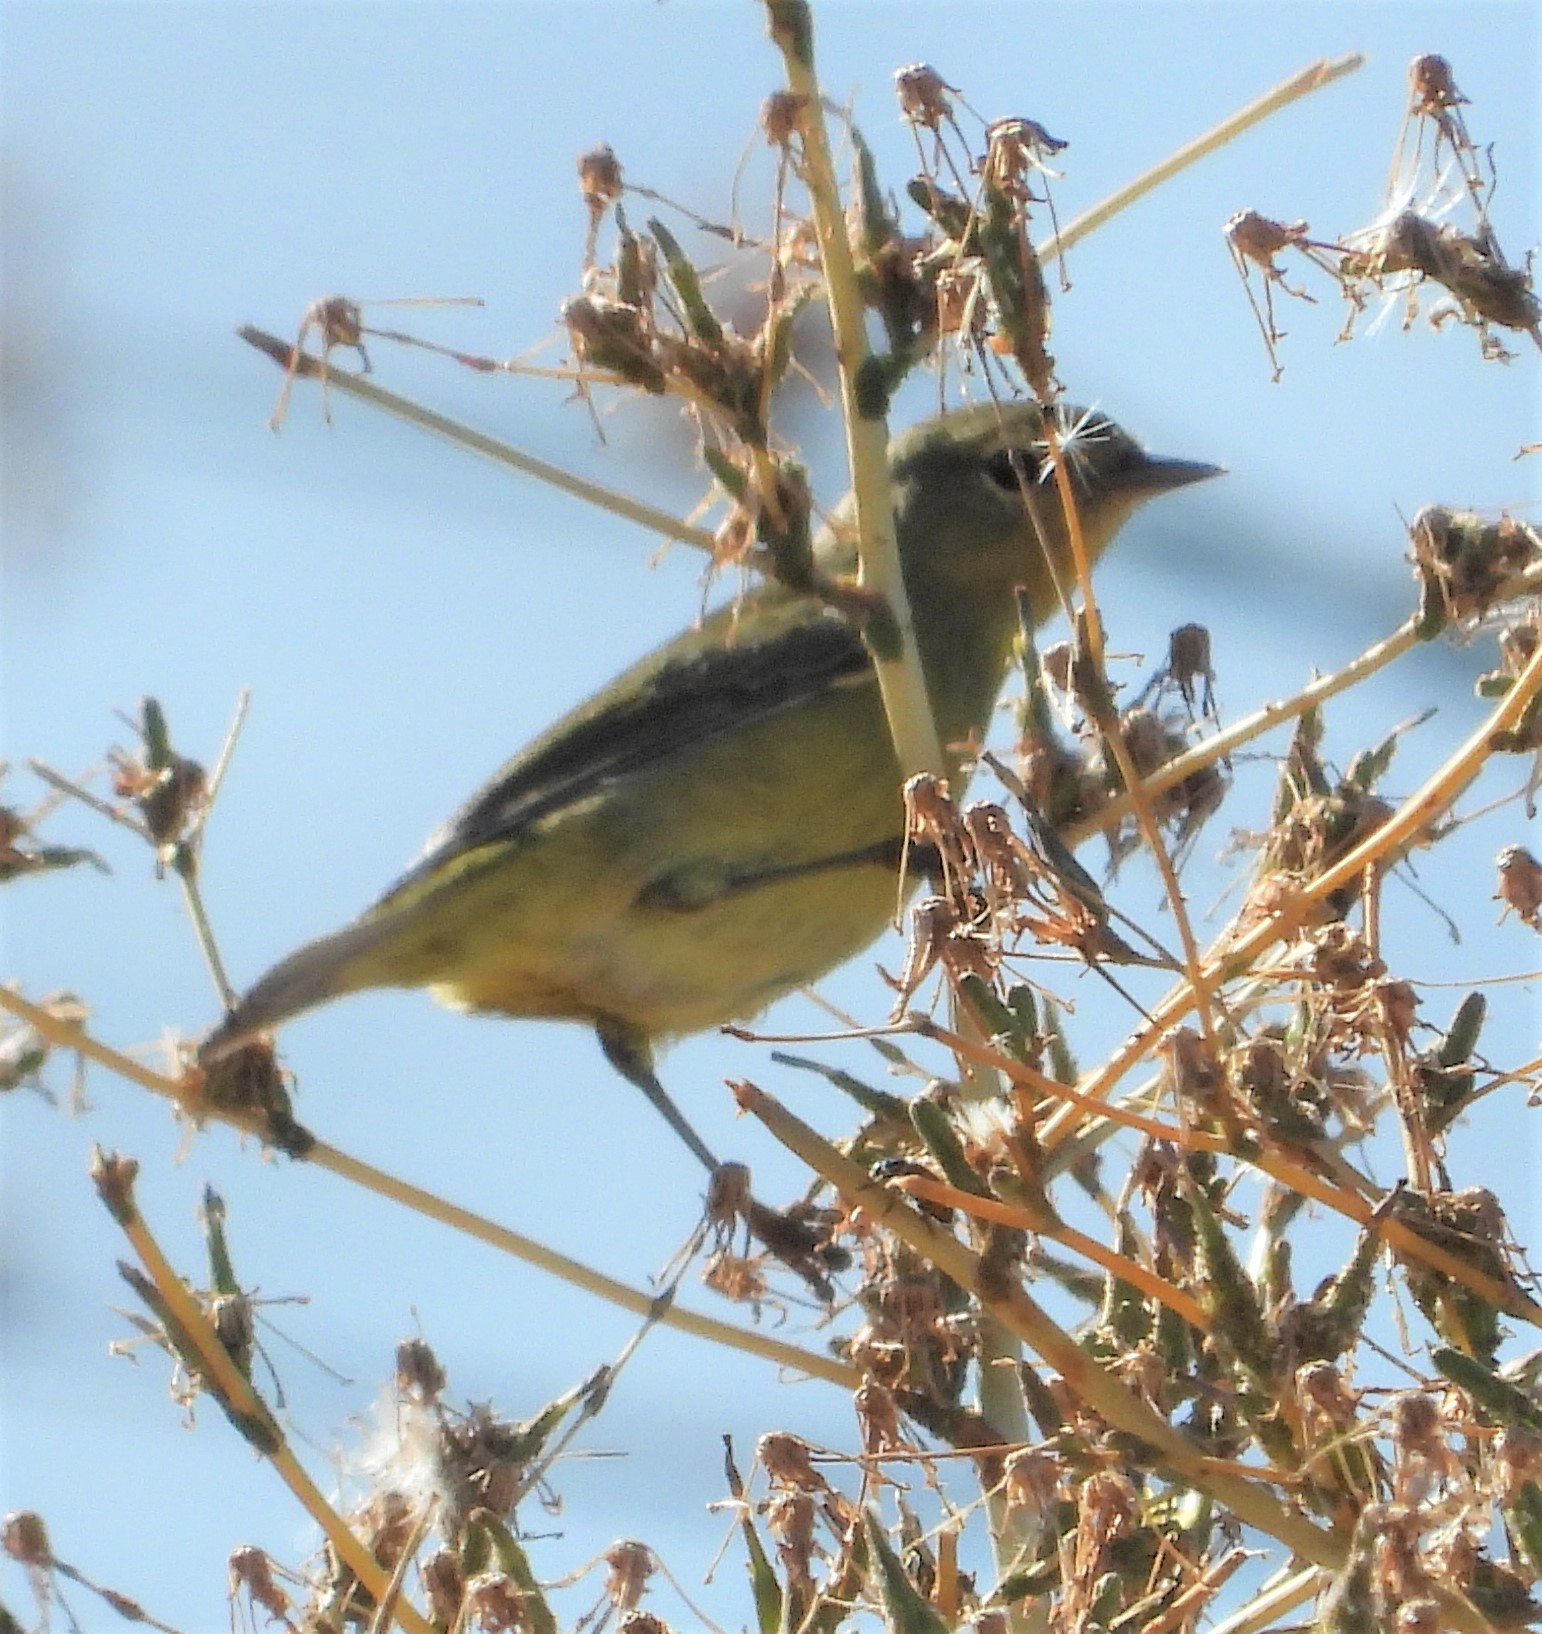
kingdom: Animalia
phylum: Chordata
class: Aves
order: Passeriformes
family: Parulidae
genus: Geothlypis
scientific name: Geothlypis trichas
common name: Common yellowthroat
